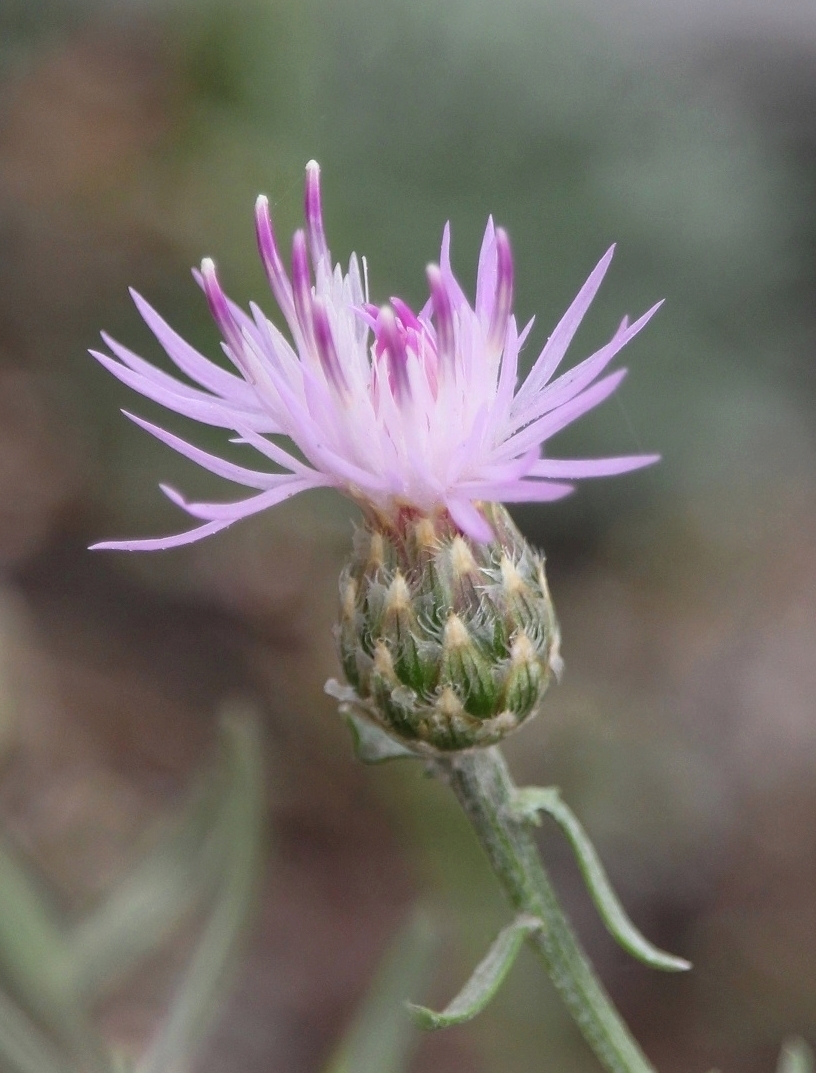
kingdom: Plantae
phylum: Tracheophyta
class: Magnoliopsida
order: Asterales
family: Asteraceae
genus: Centaurea
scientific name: Centaurea arenaria
